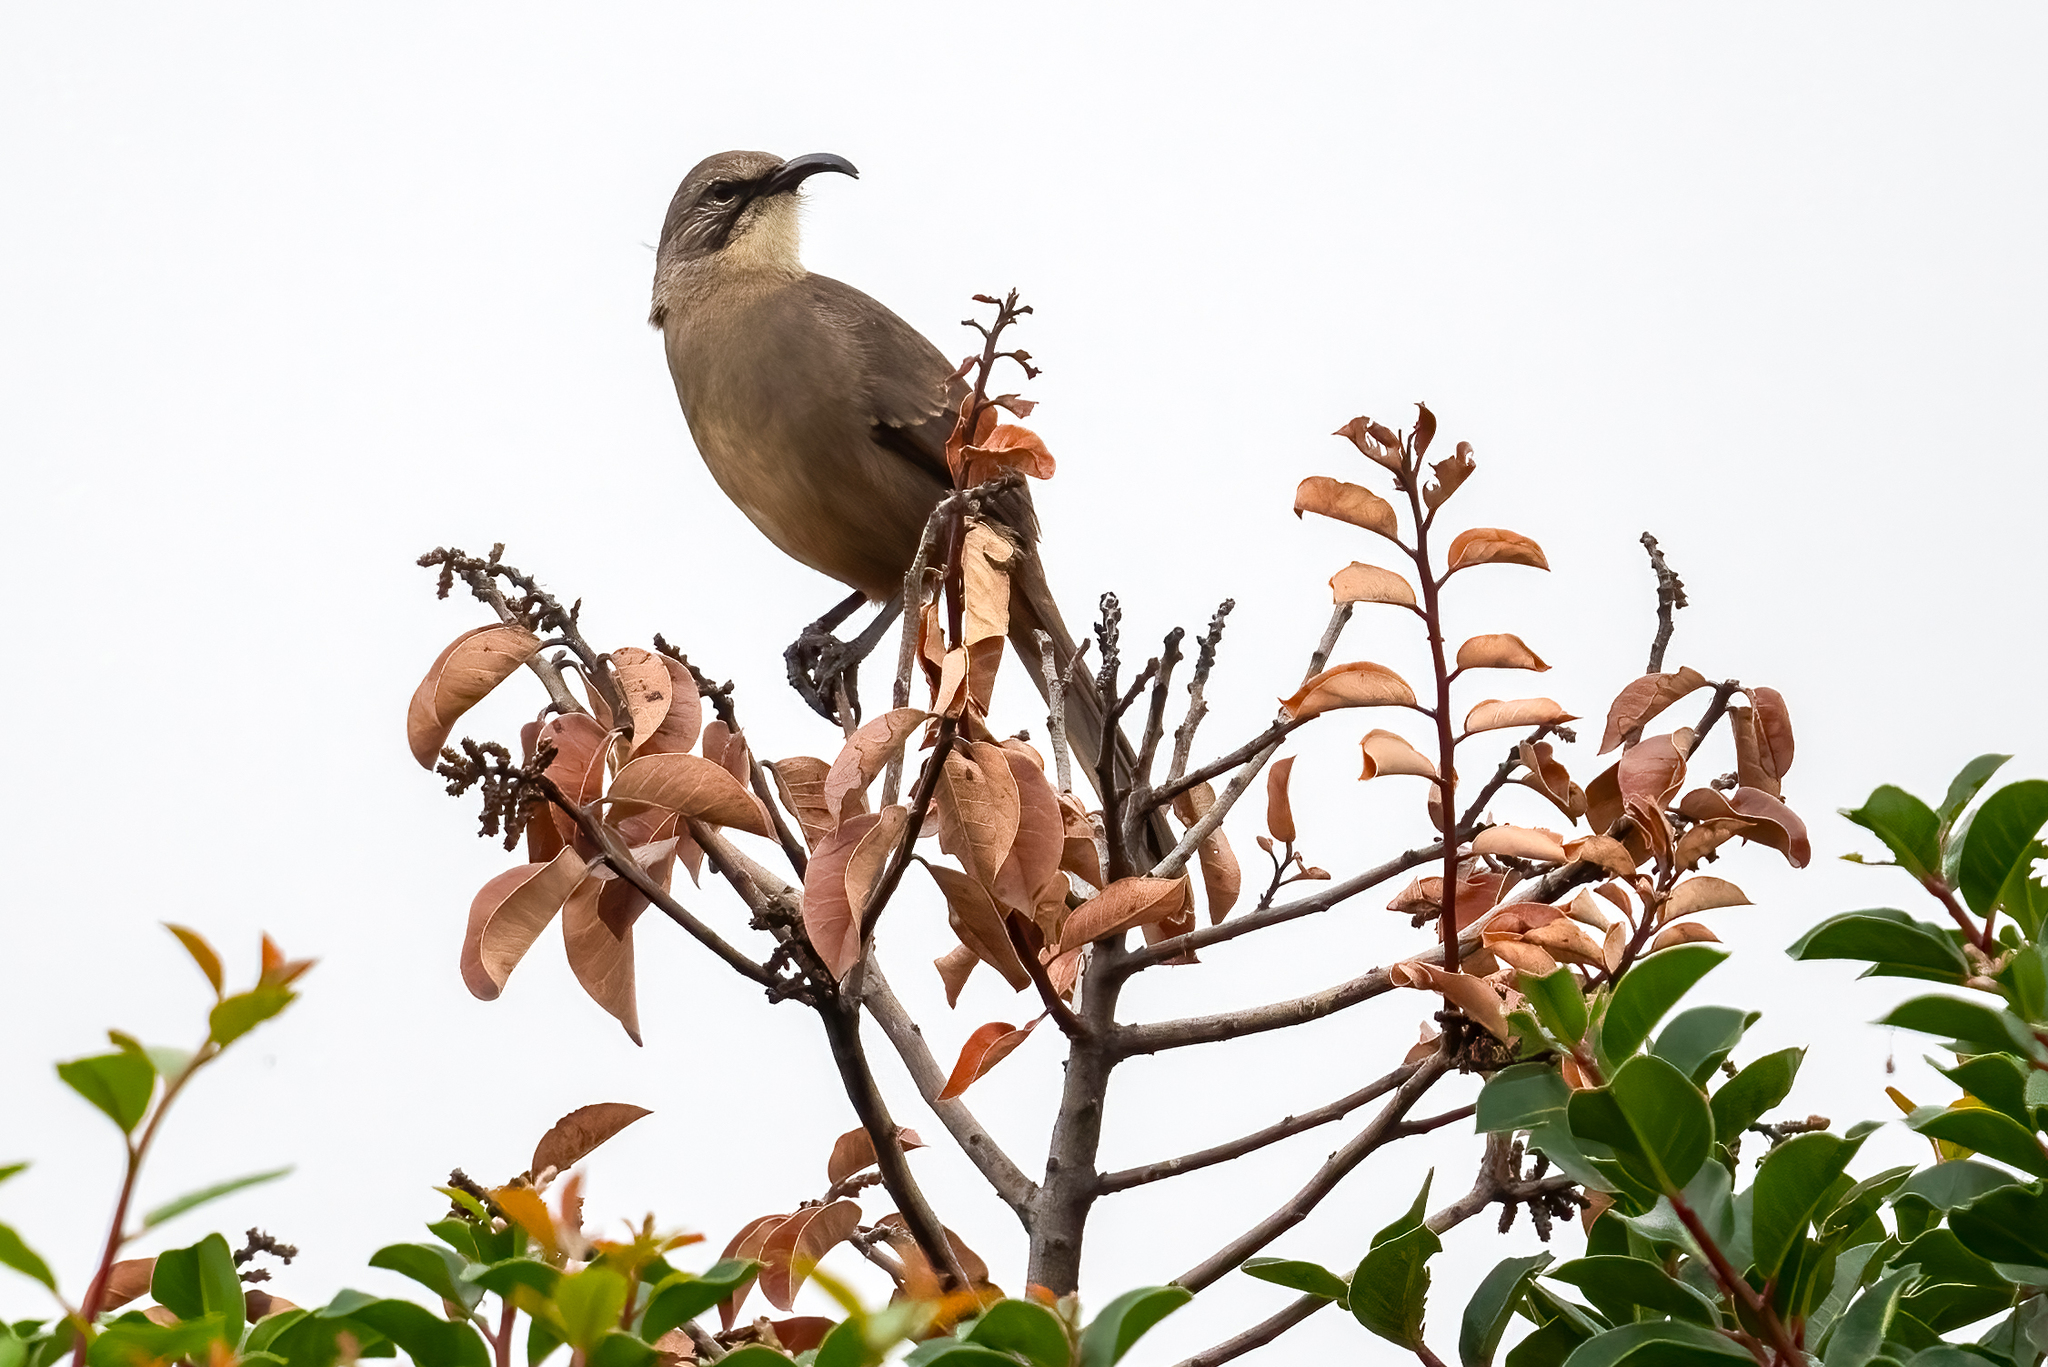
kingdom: Animalia
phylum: Chordata
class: Aves
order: Passeriformes
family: Mimidae
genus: Toxostoma
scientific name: Toxostoma redivivum
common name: California thrasher
